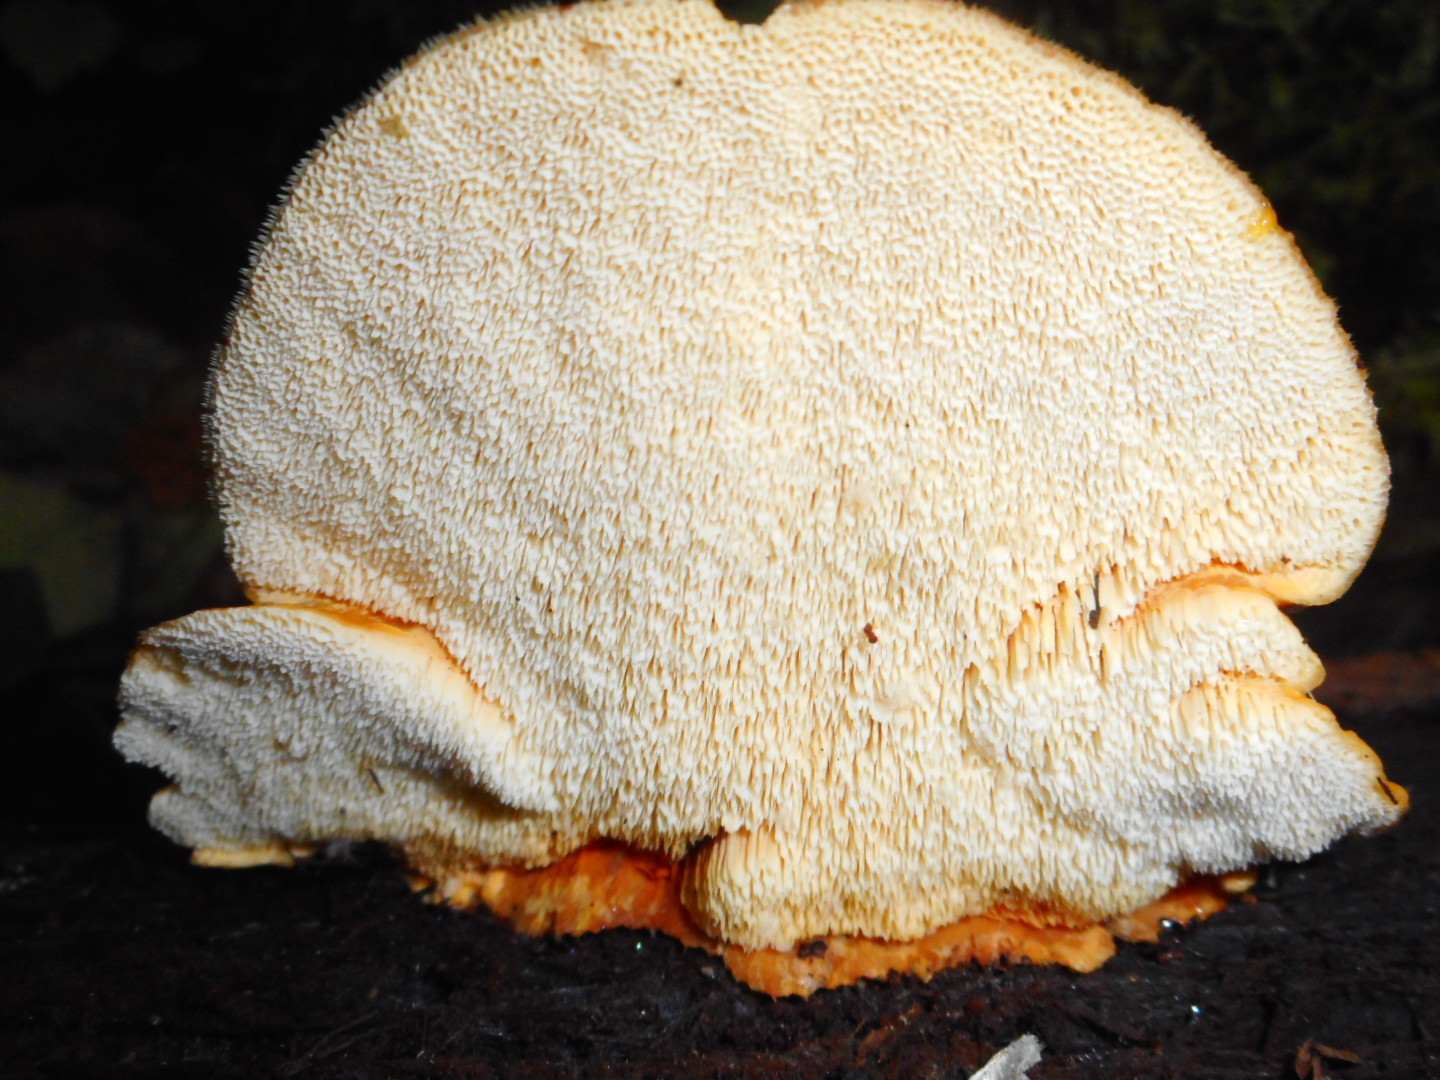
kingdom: Fungi
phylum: Basidiomycota
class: Agaricomycetes
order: Polyporales
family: Pycnoporellaceae
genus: Pycnoporellus
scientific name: Pycnoporellus fulgens
